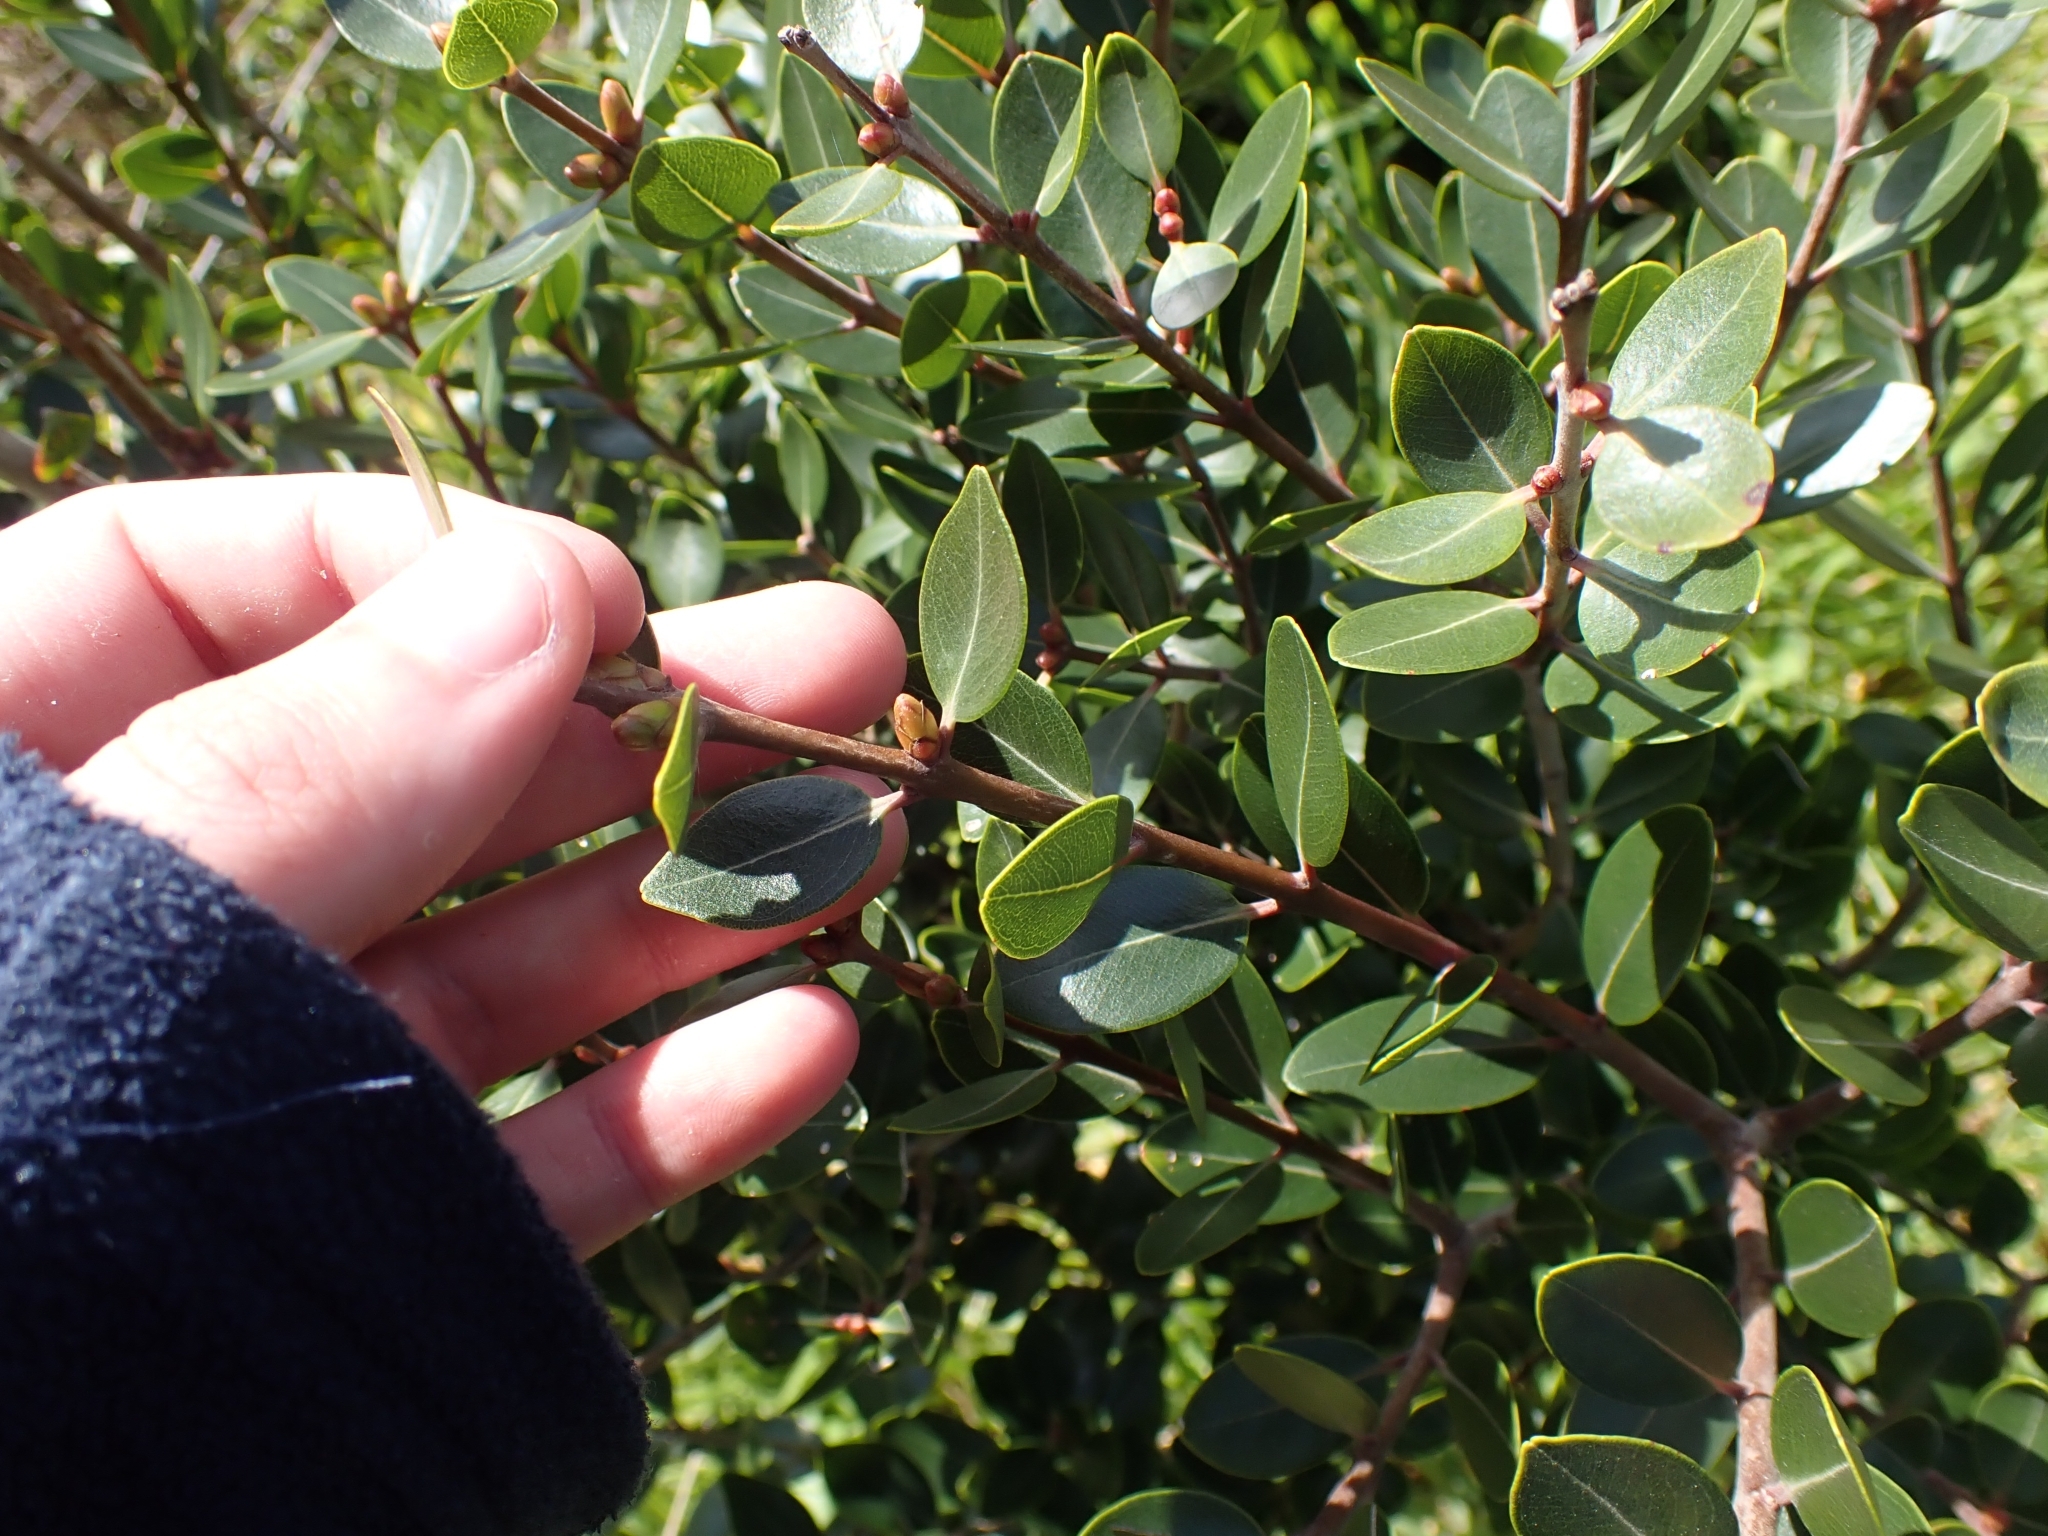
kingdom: Plantae
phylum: Tracheophyta
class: Magnoliopsida
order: Myrtales
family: Myrtaceae
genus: Metrosideros
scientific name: Metrosideros robusta
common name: Northern rata
